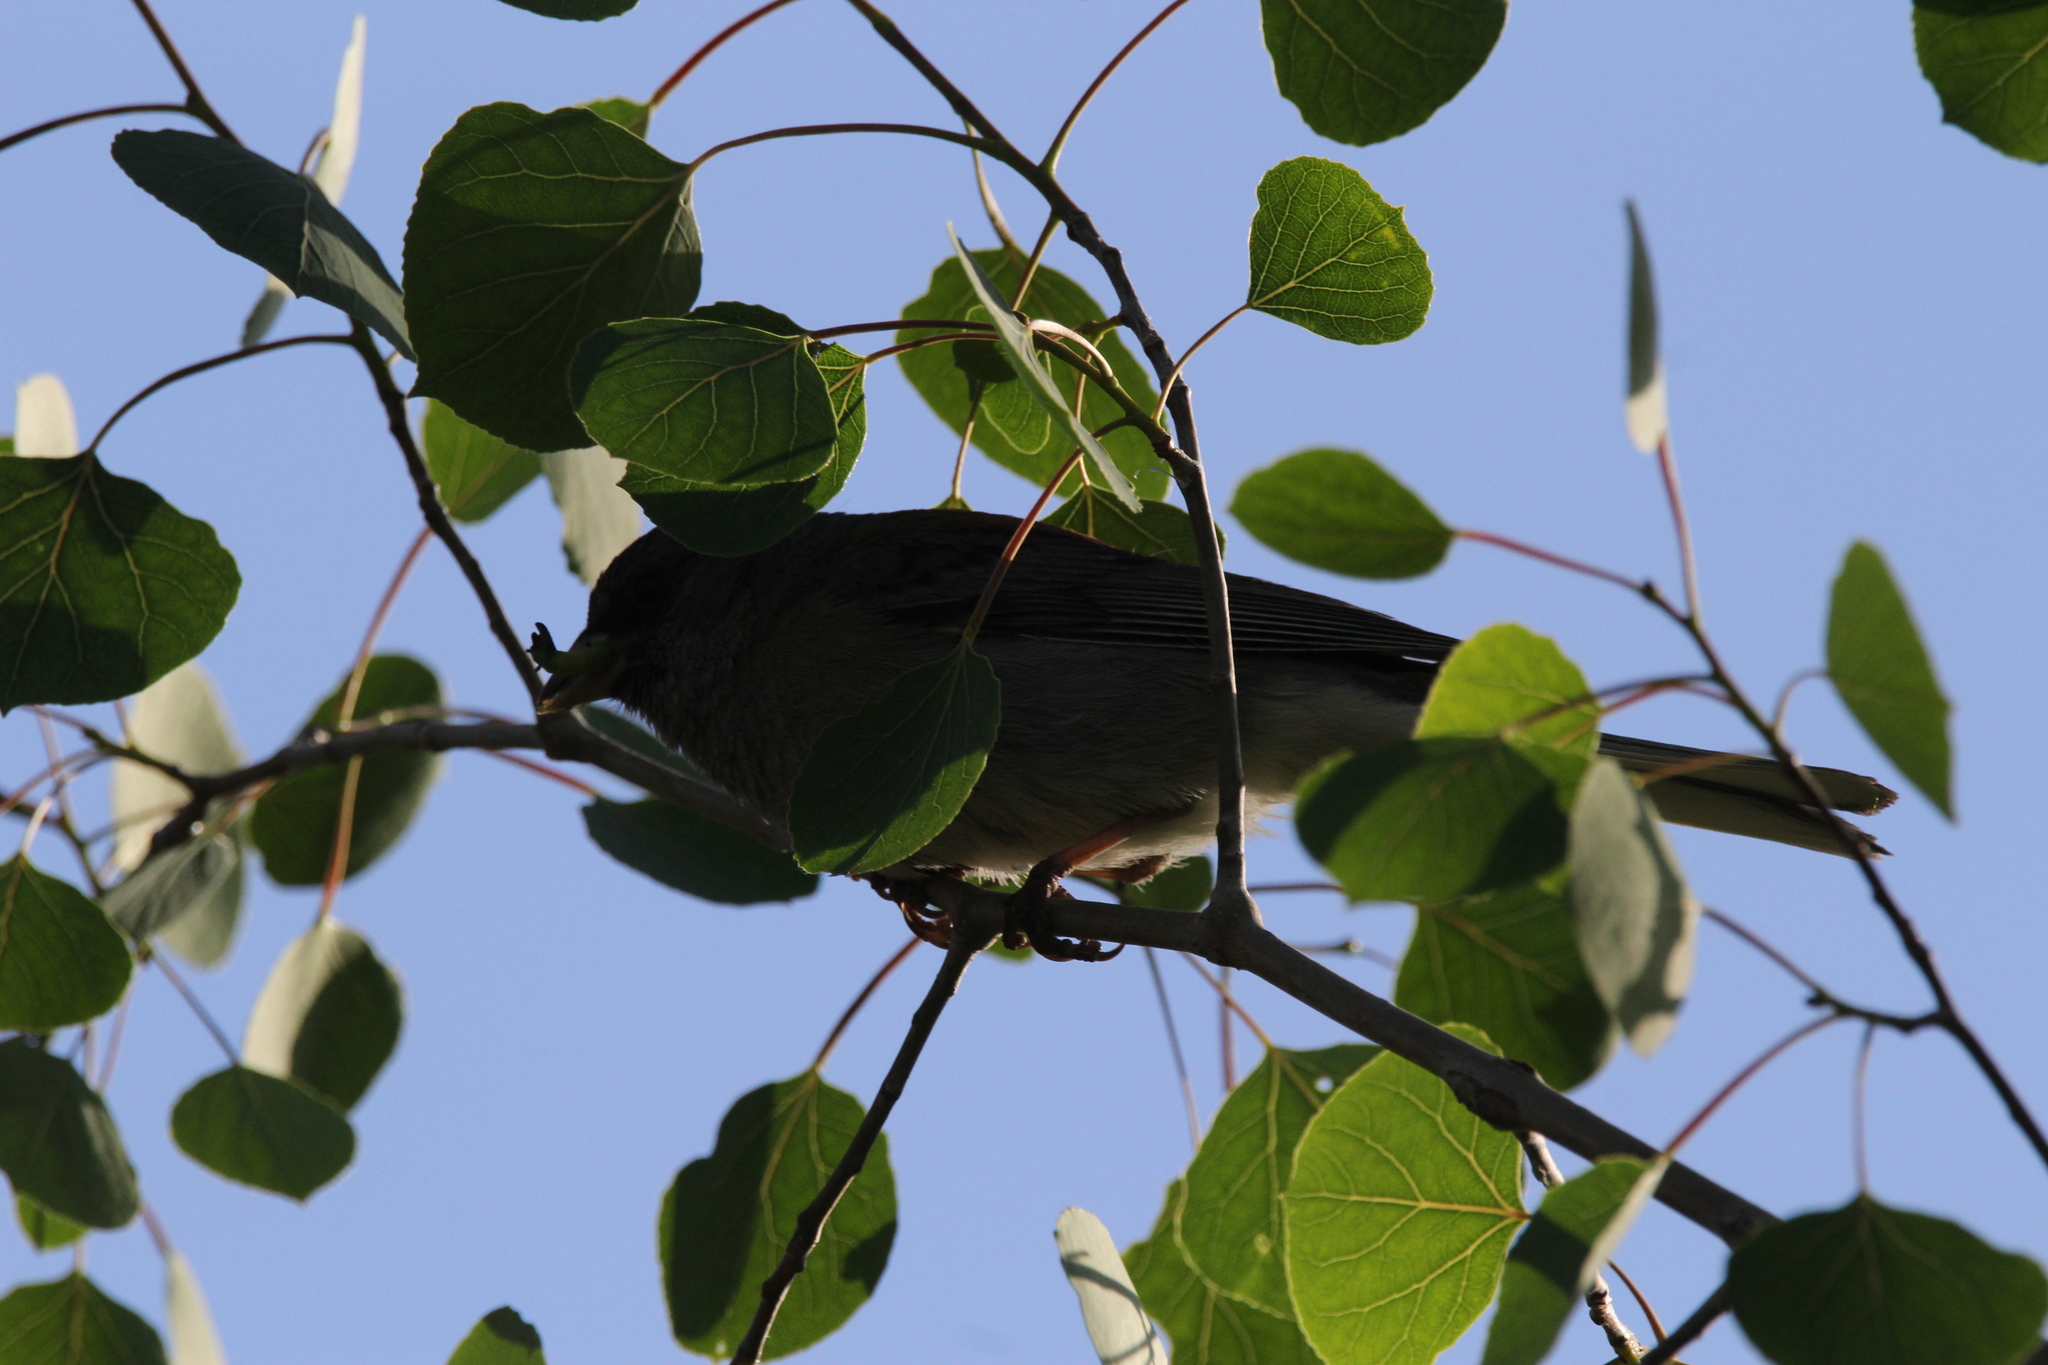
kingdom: Animalia
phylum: Chordata
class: Aves
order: Passeriformes
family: Passerellidae
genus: Junco
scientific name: Junco hyemalis
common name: Dark-eyed junco
